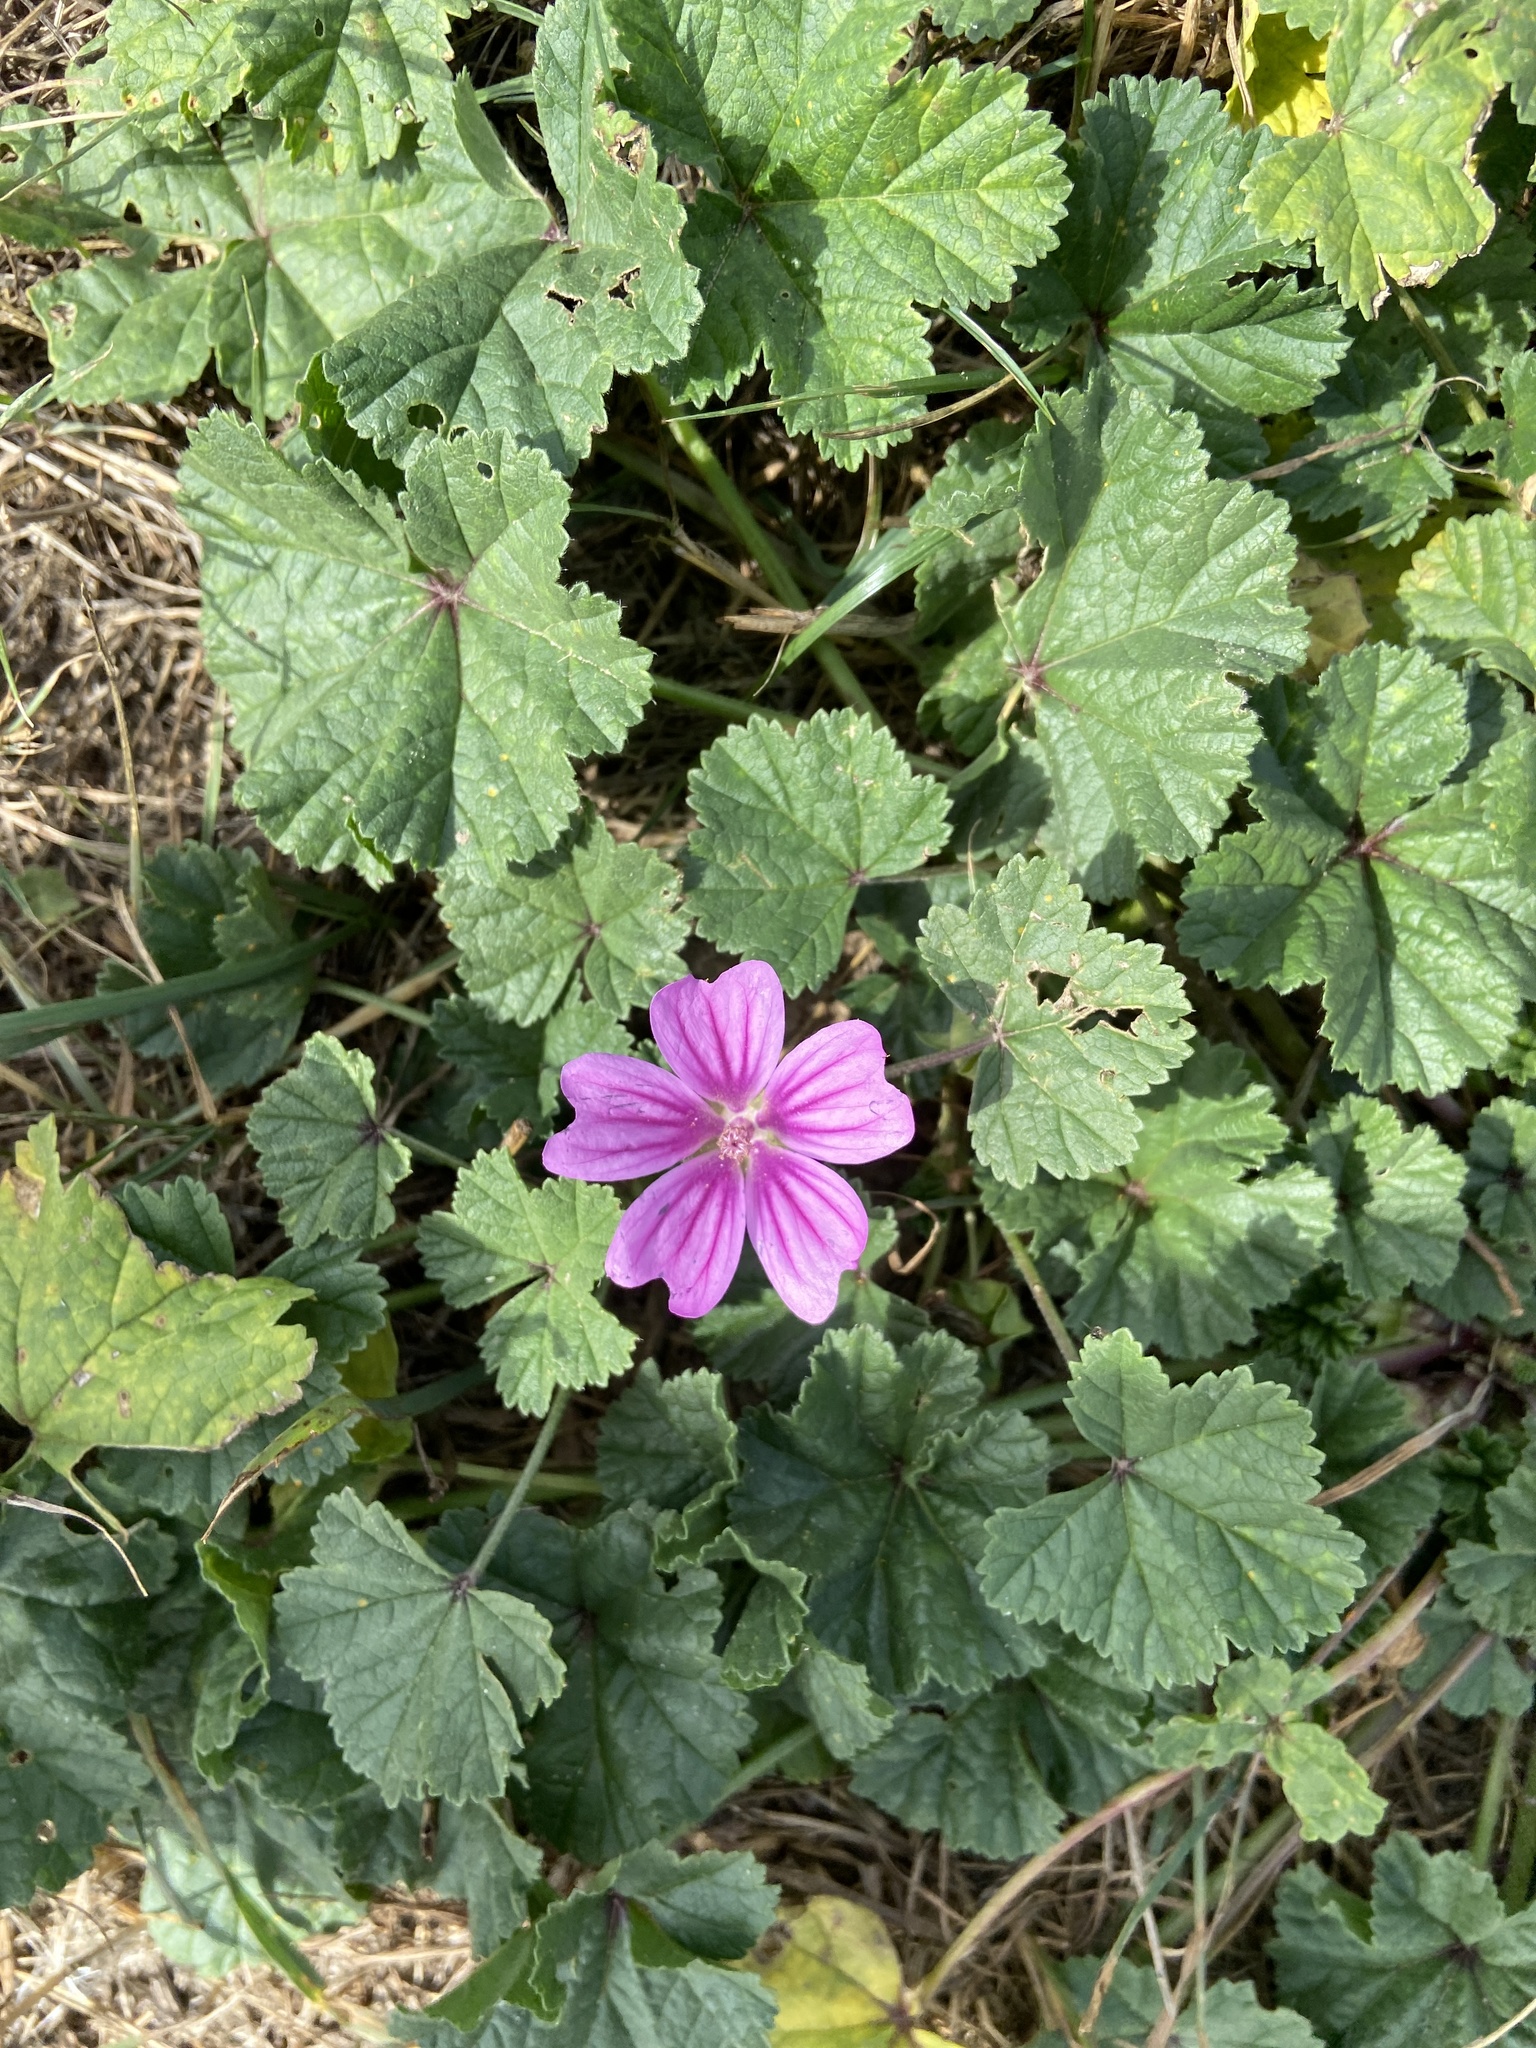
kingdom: Plantae
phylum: Tracheophyta
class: Magnoliopsida
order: Malvales
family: Malvaceae
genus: Malva
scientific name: Malva sylvestris
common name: Common mallow
